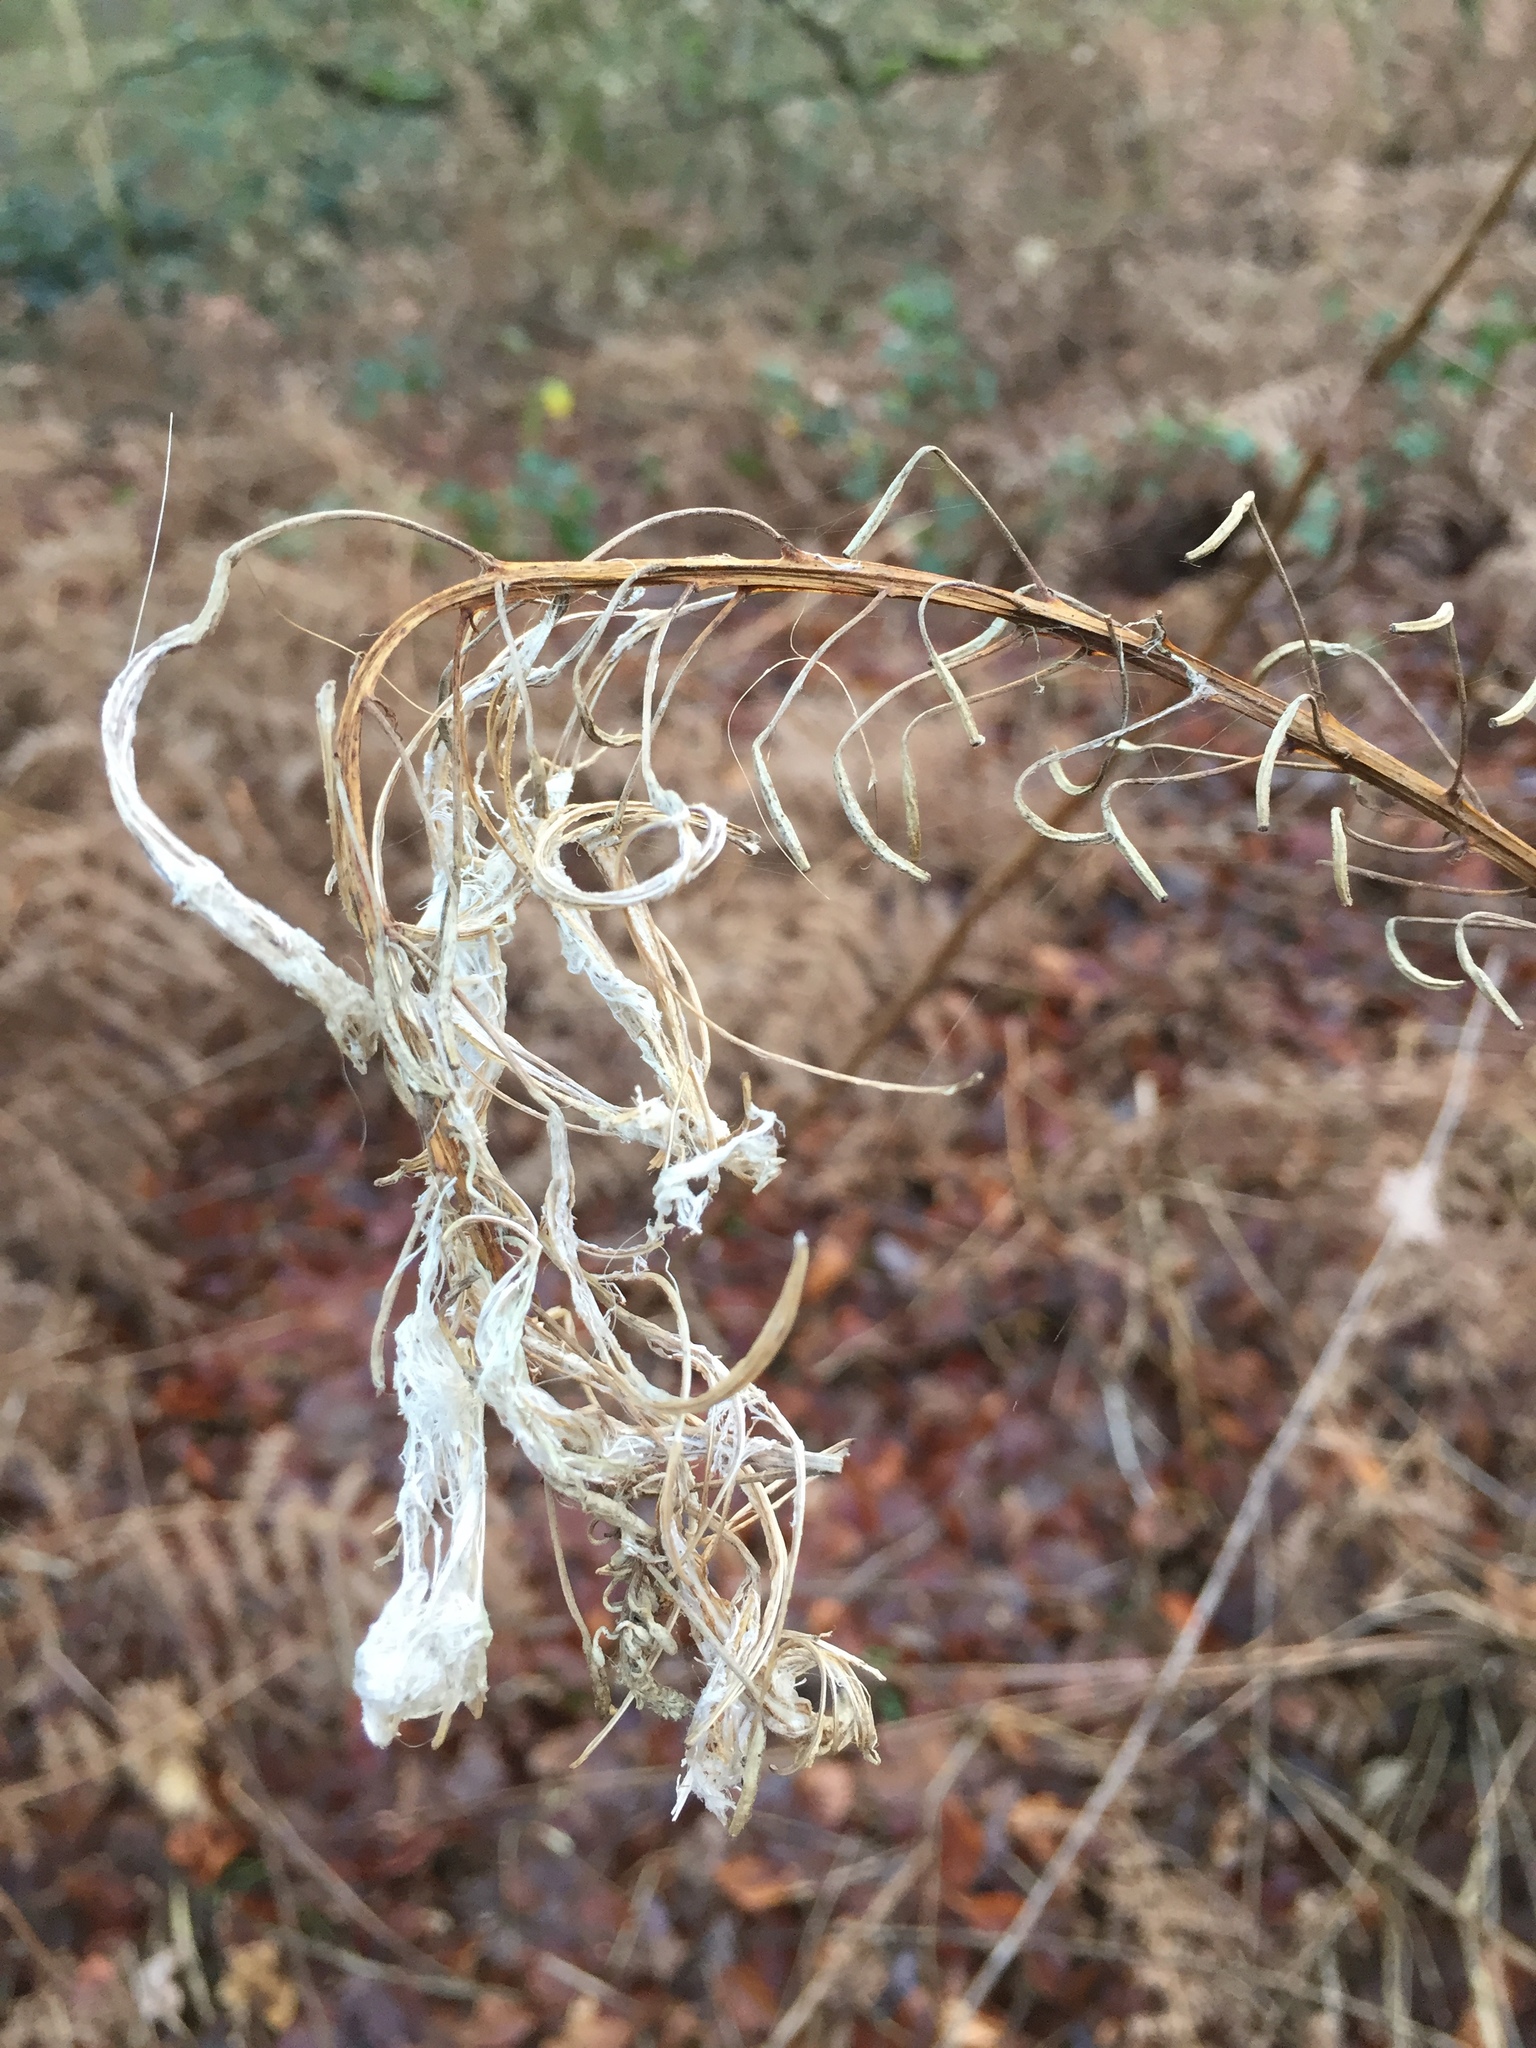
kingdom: Plantae
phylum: Tracheophyta
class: Magnoliopsida
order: Myrtales
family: Onagraceae
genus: Chamaenerion
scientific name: Chamaenerion angustifolium
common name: Fireweed
